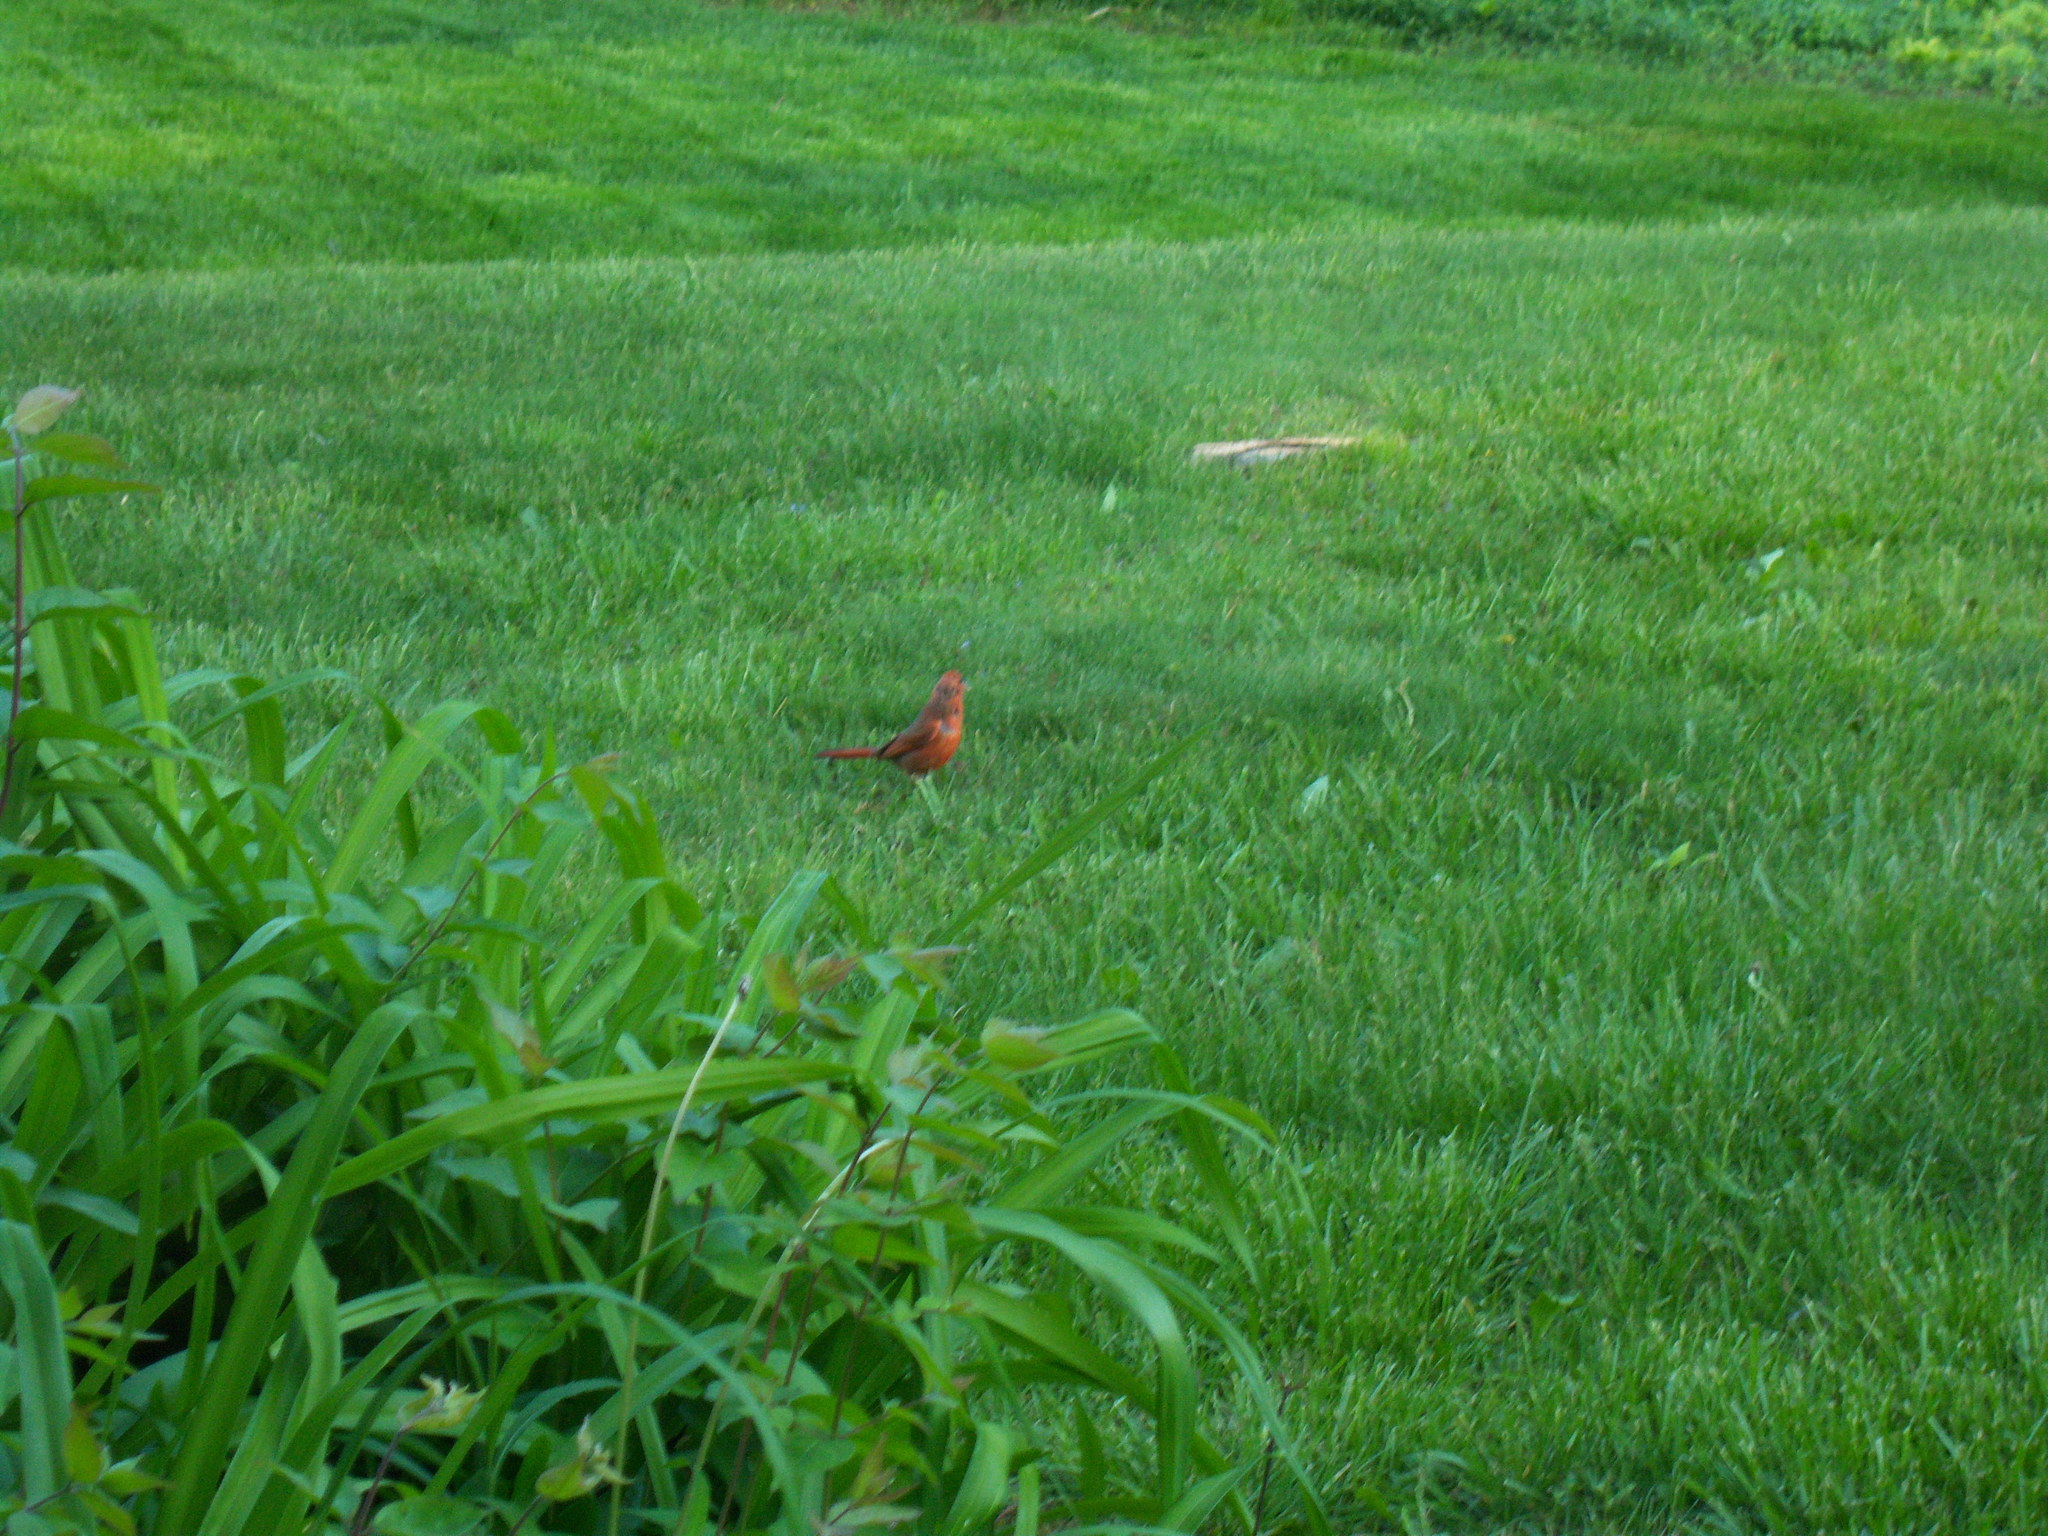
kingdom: Animalia
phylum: Chordata
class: Aves
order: Passeriformes
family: Cardinalidae
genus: Cardinalis
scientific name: Cardinalis cardinalis
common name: Northern cardinal
